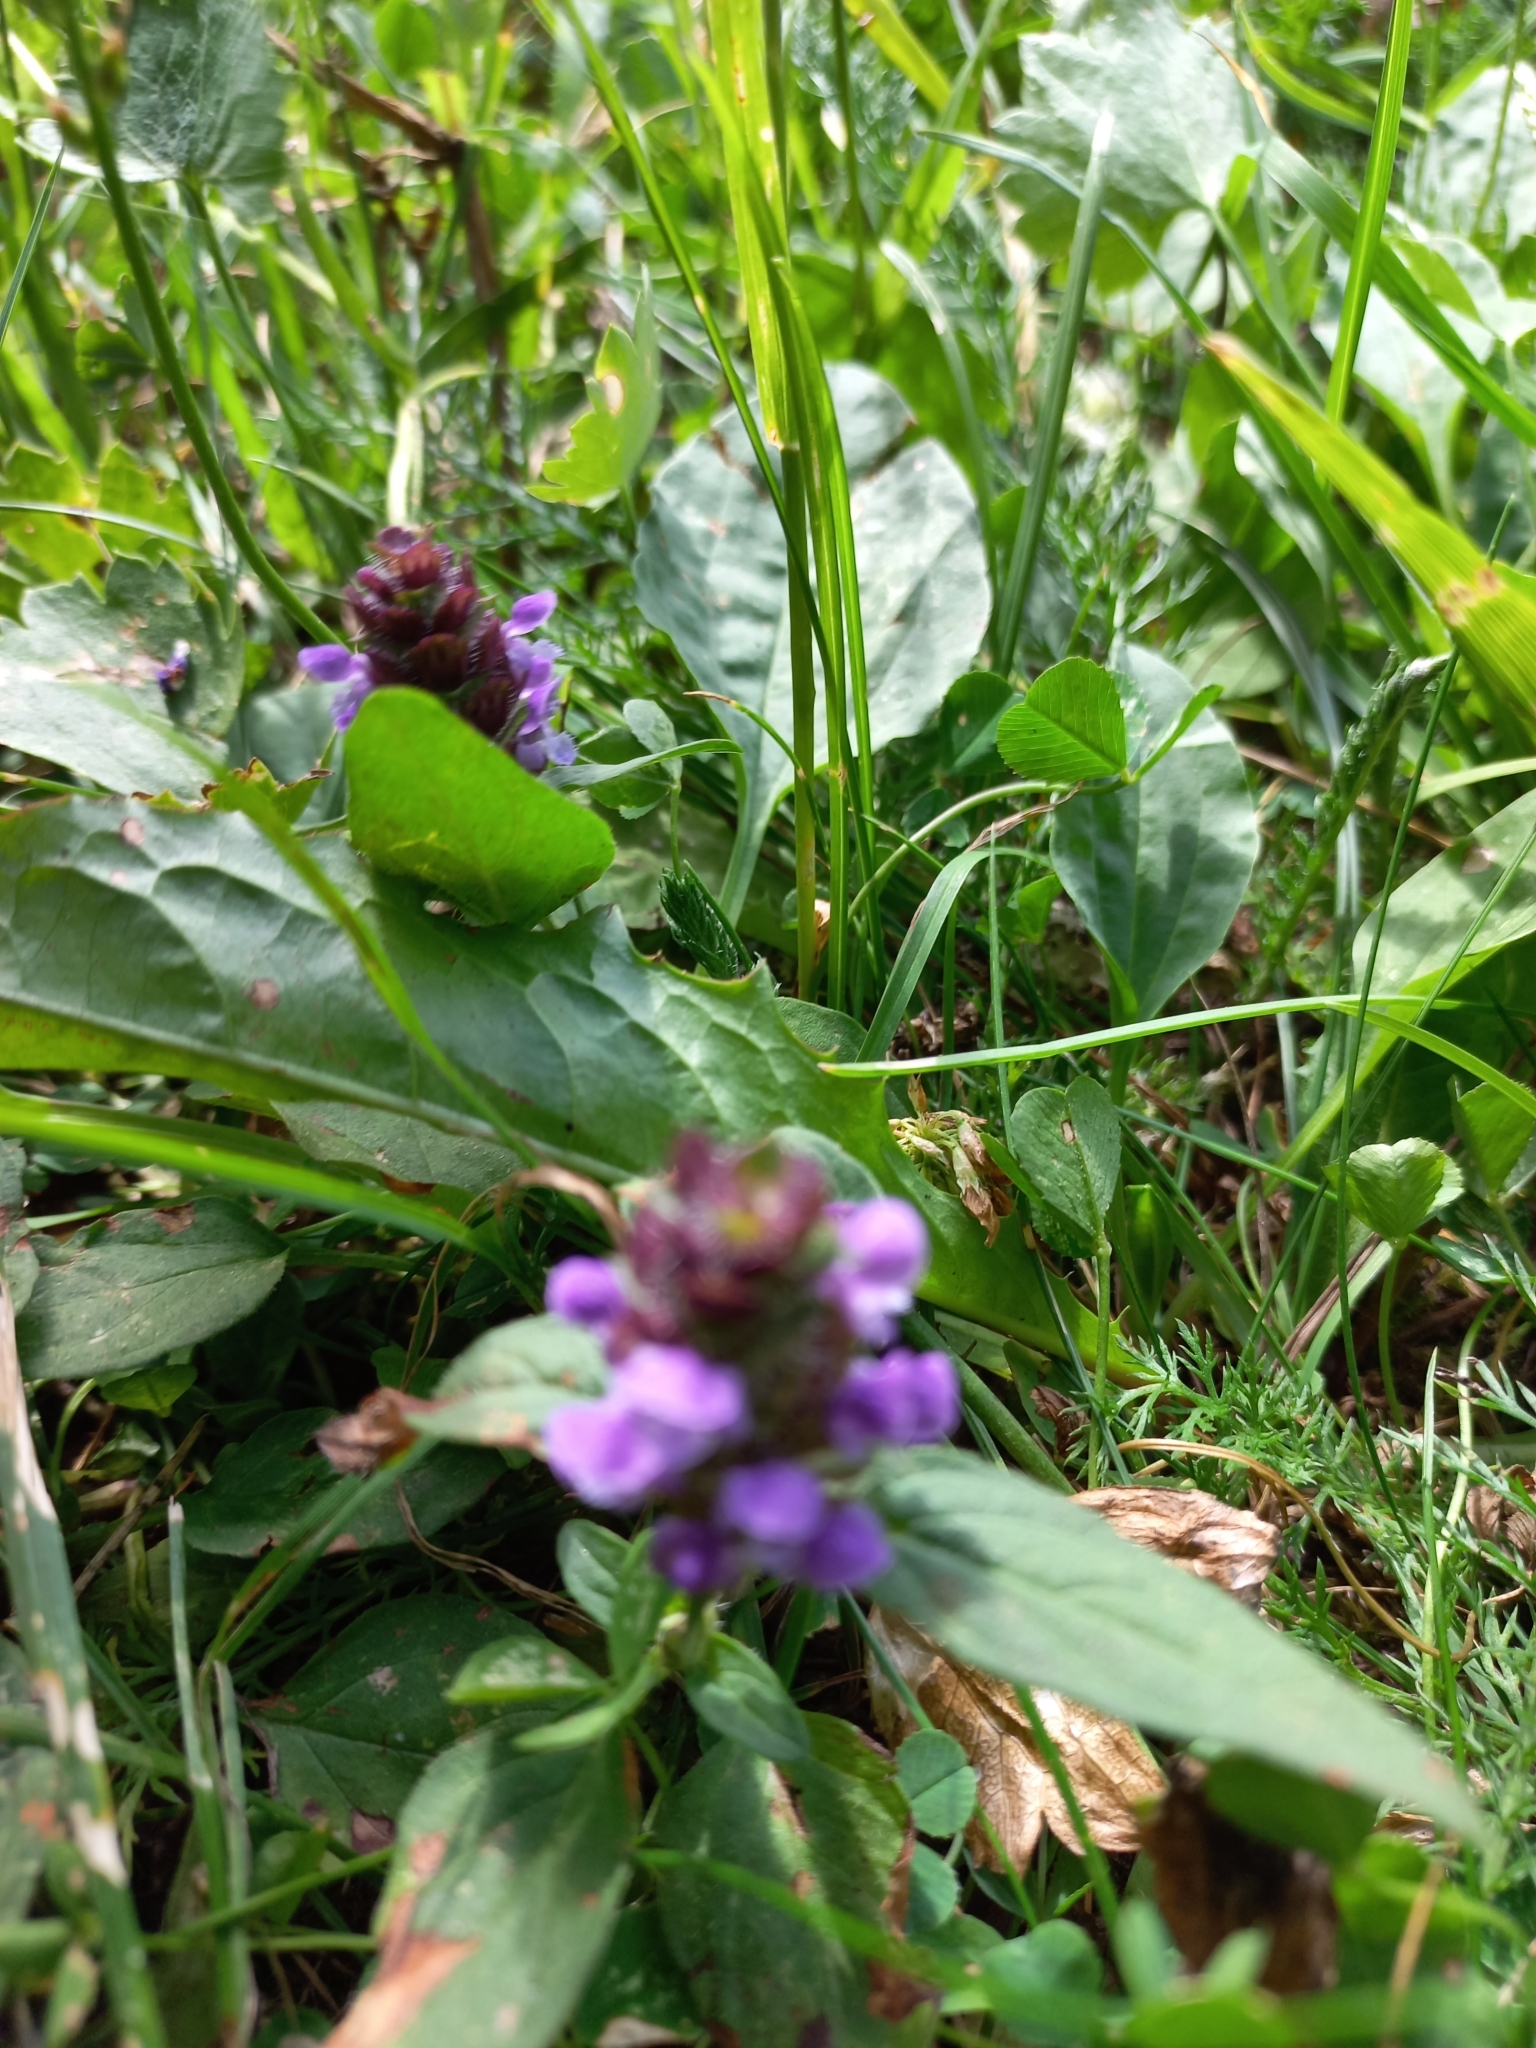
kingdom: Plantae
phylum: Tracheophyta
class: Magnoliopsida
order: Lamiales
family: Lamiaceae
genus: Prunella
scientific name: Prunella vulgaris
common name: Heal-all
